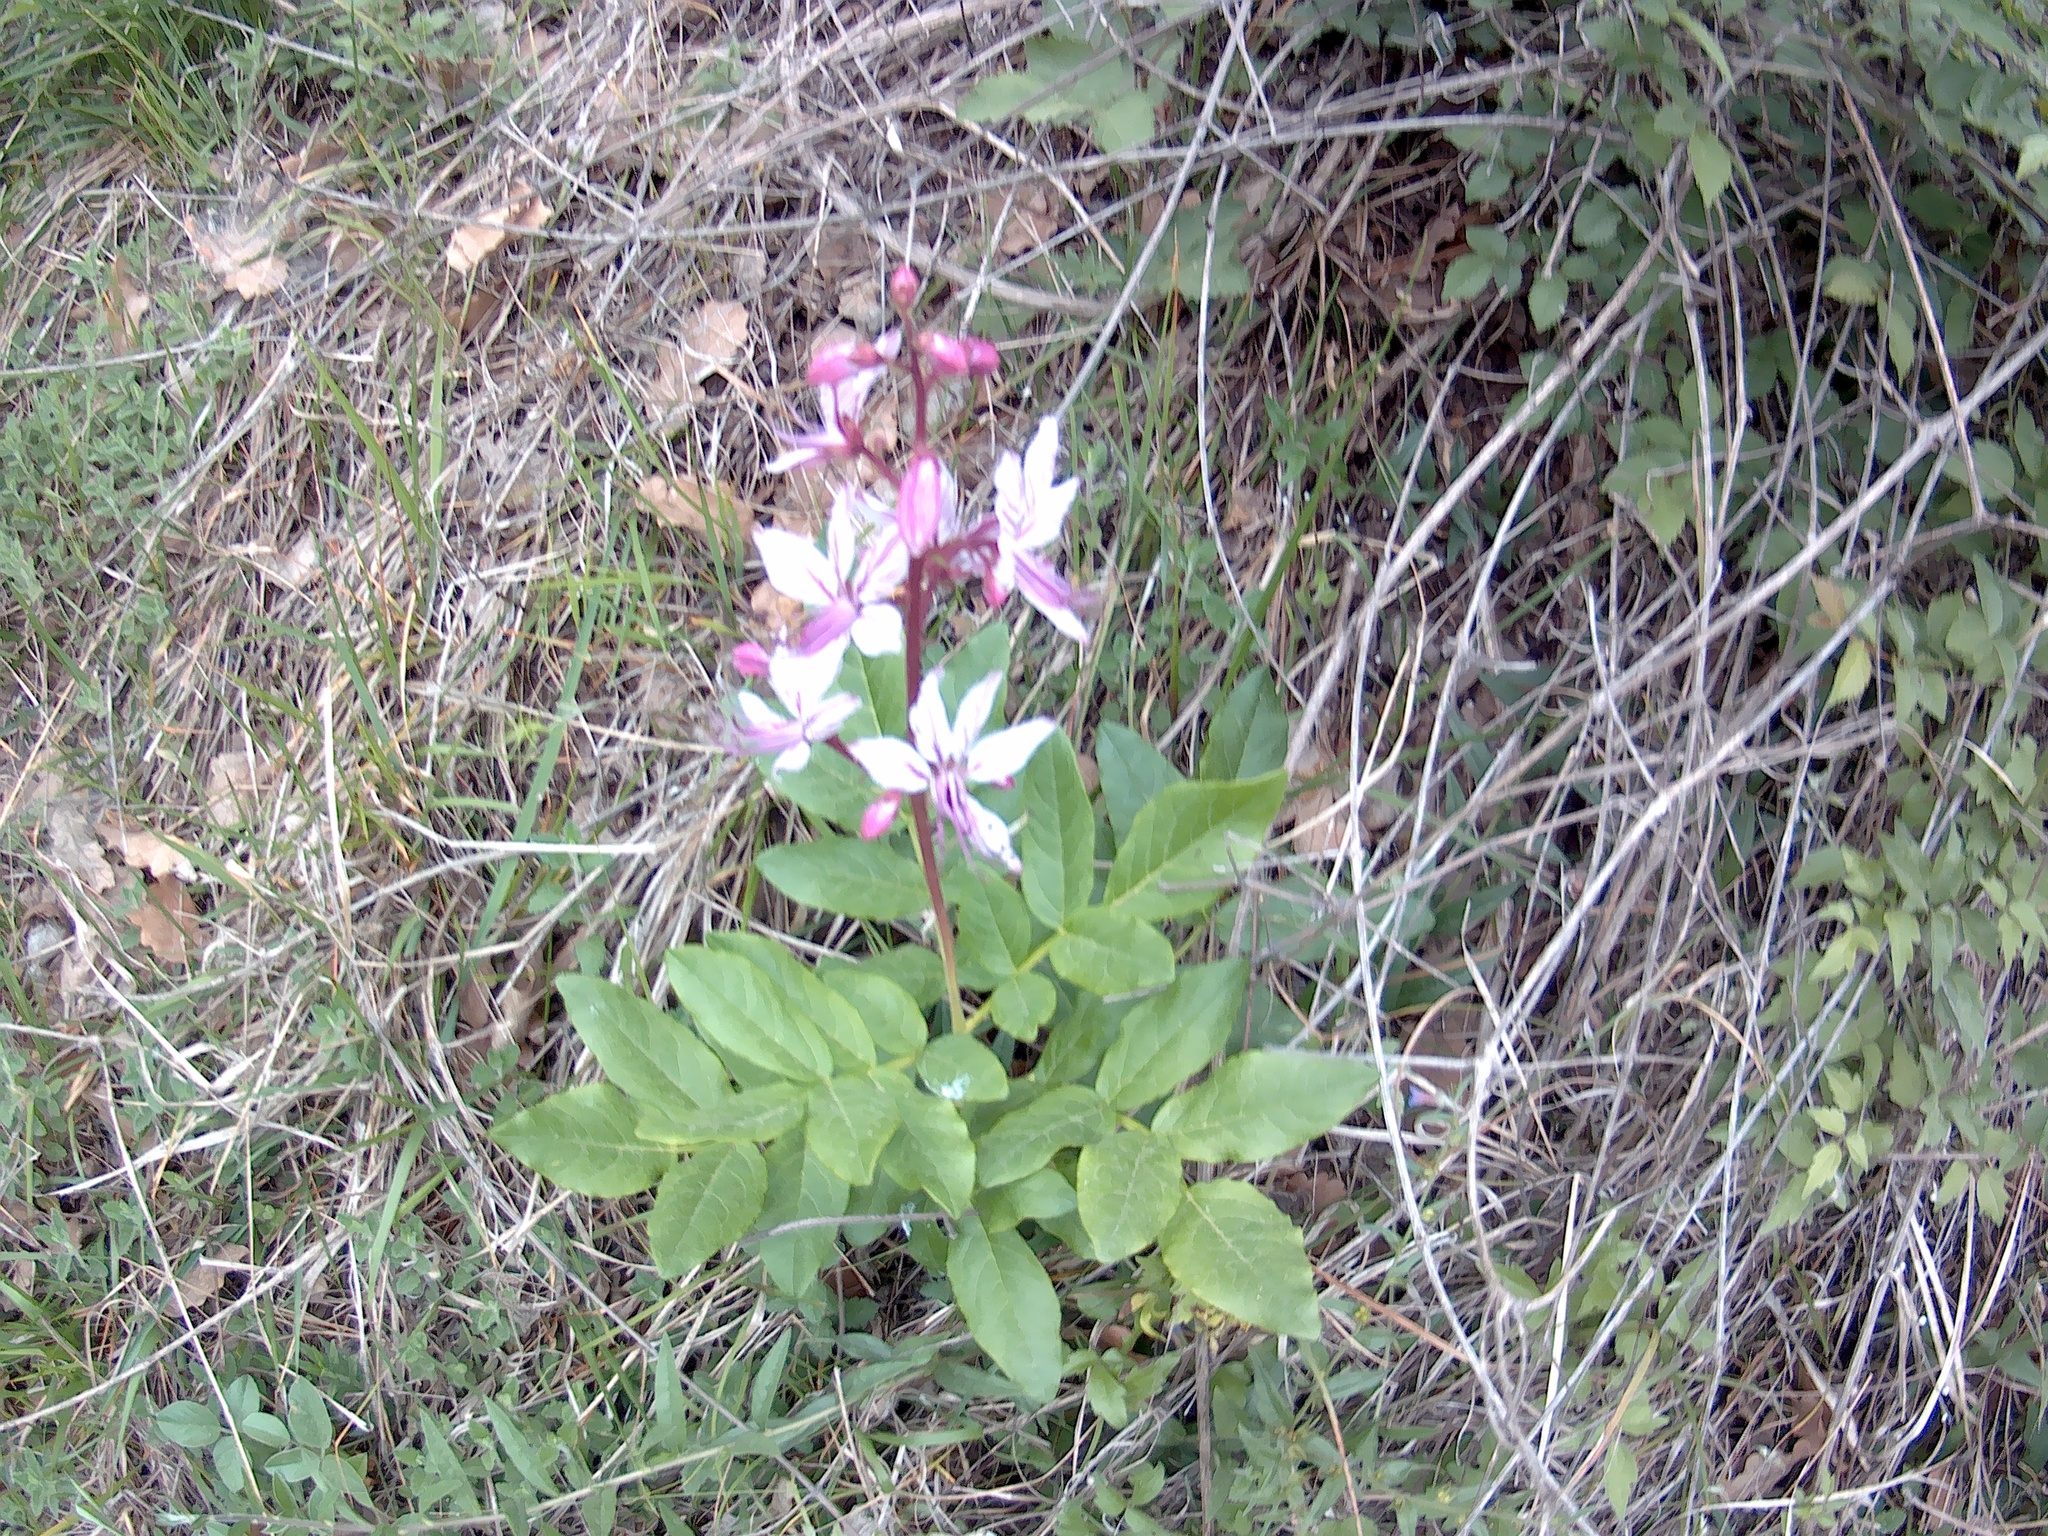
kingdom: Plantae
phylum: Tracheophyta
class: Magnoliopsida
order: Sapindales
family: Rutaceae
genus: Dictamnus
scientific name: Dictamnus albus
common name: Gasplant
